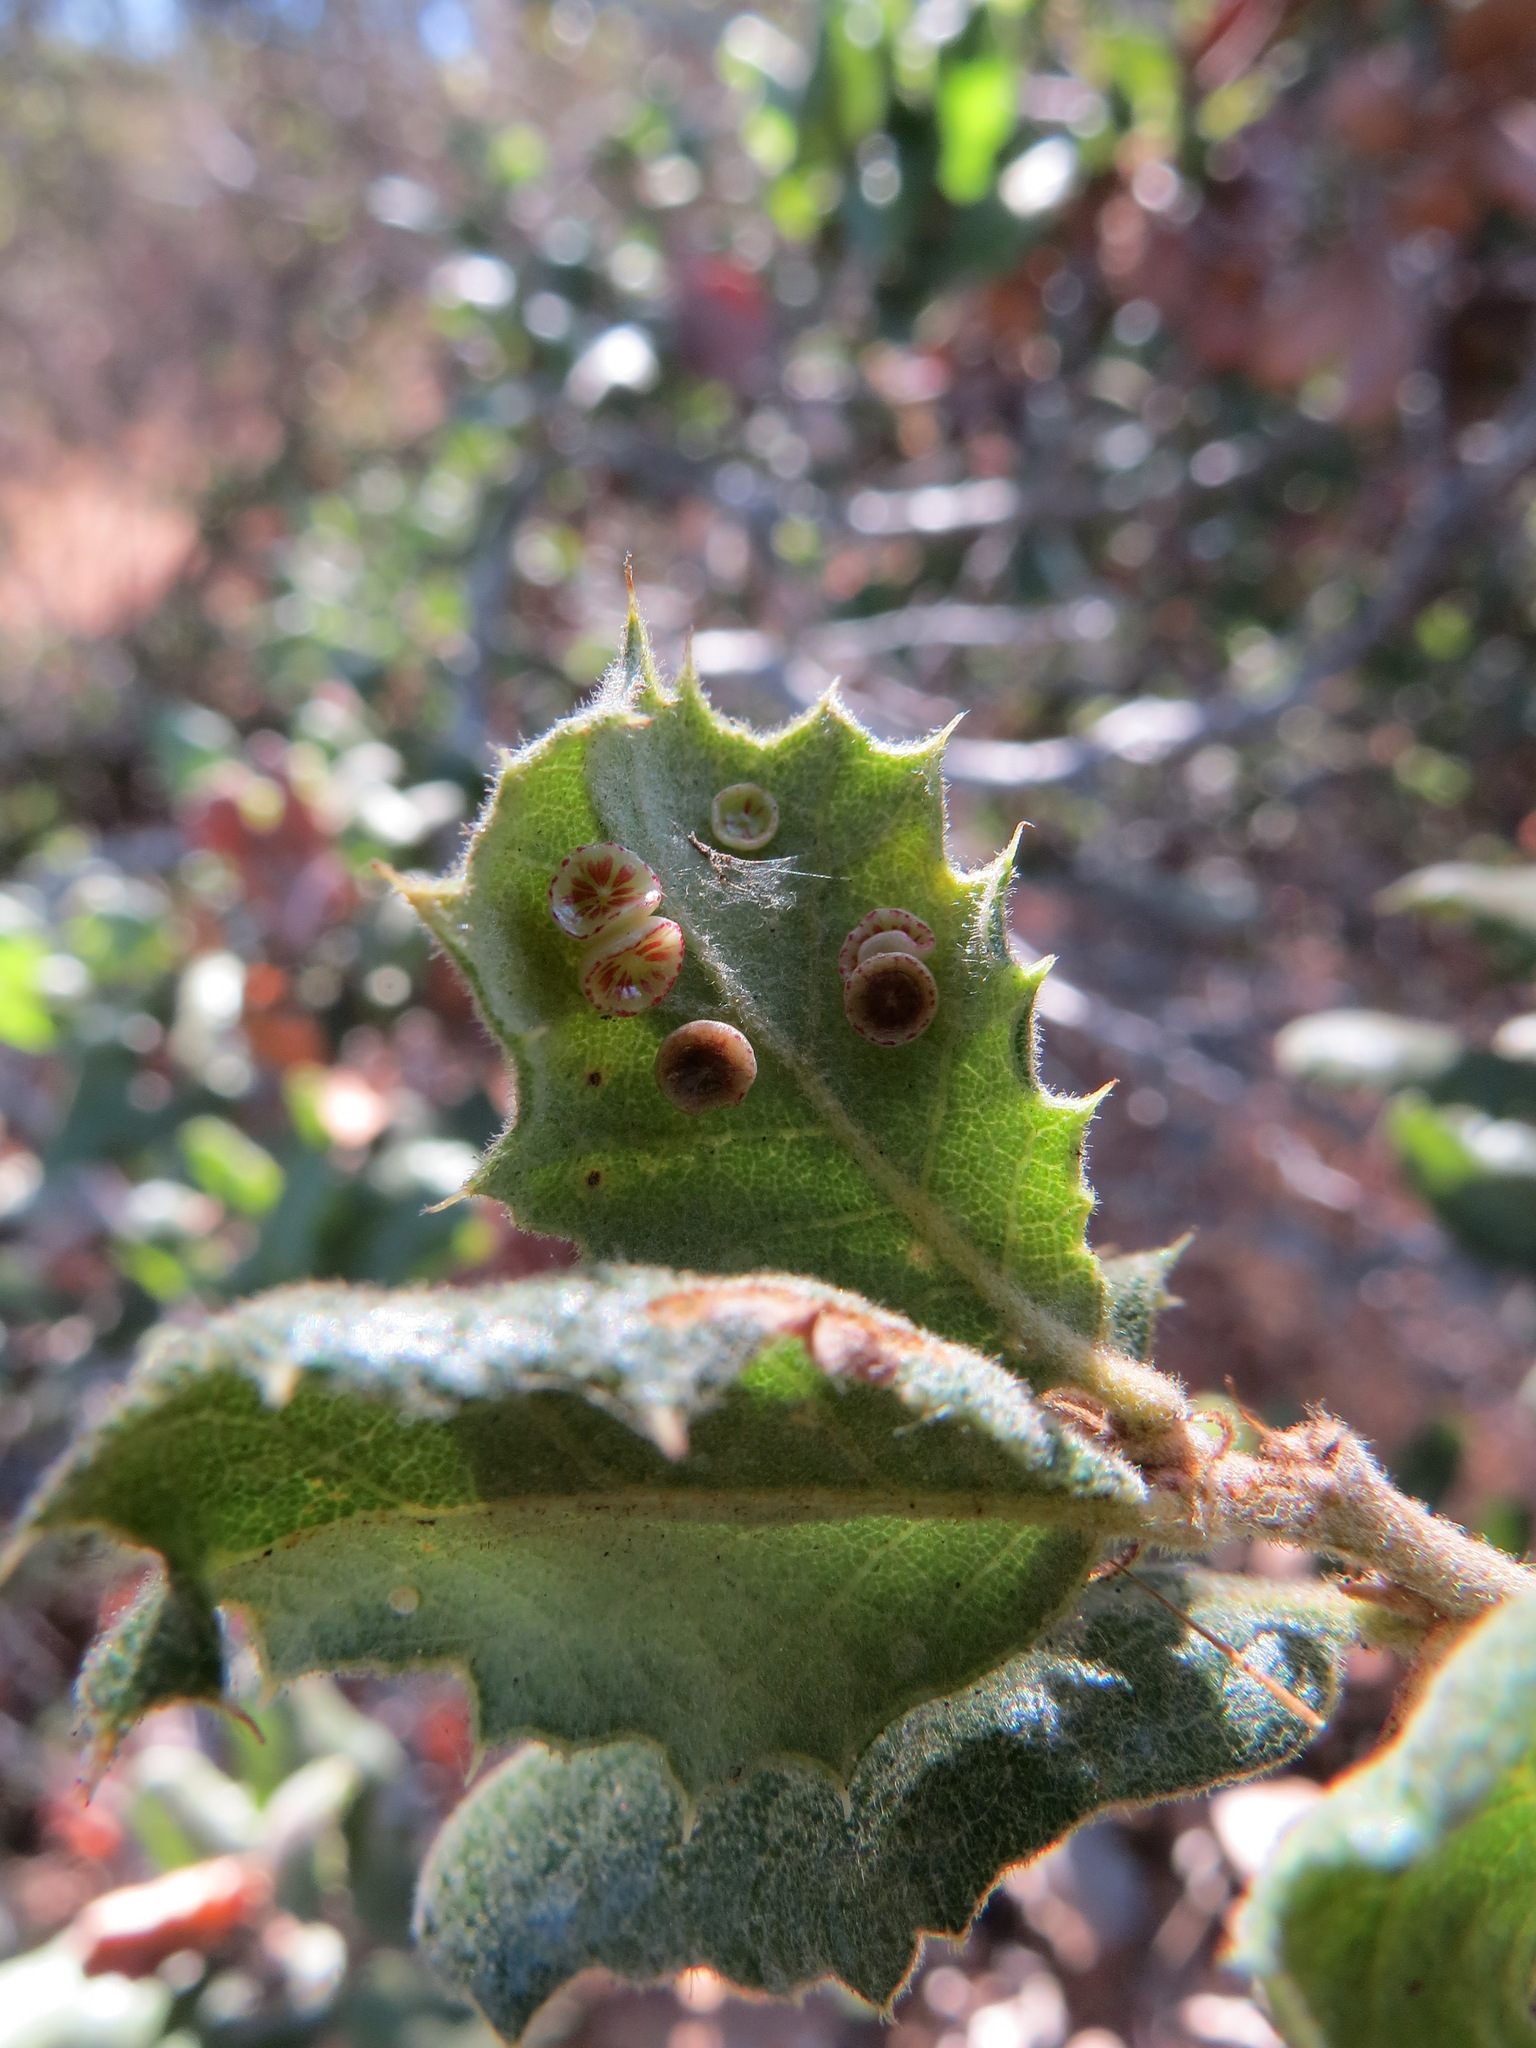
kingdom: Animalia
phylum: Arthropoda
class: Insecta
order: Hymenoptera
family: Cynipidae
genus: Andricus
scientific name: Andricus
